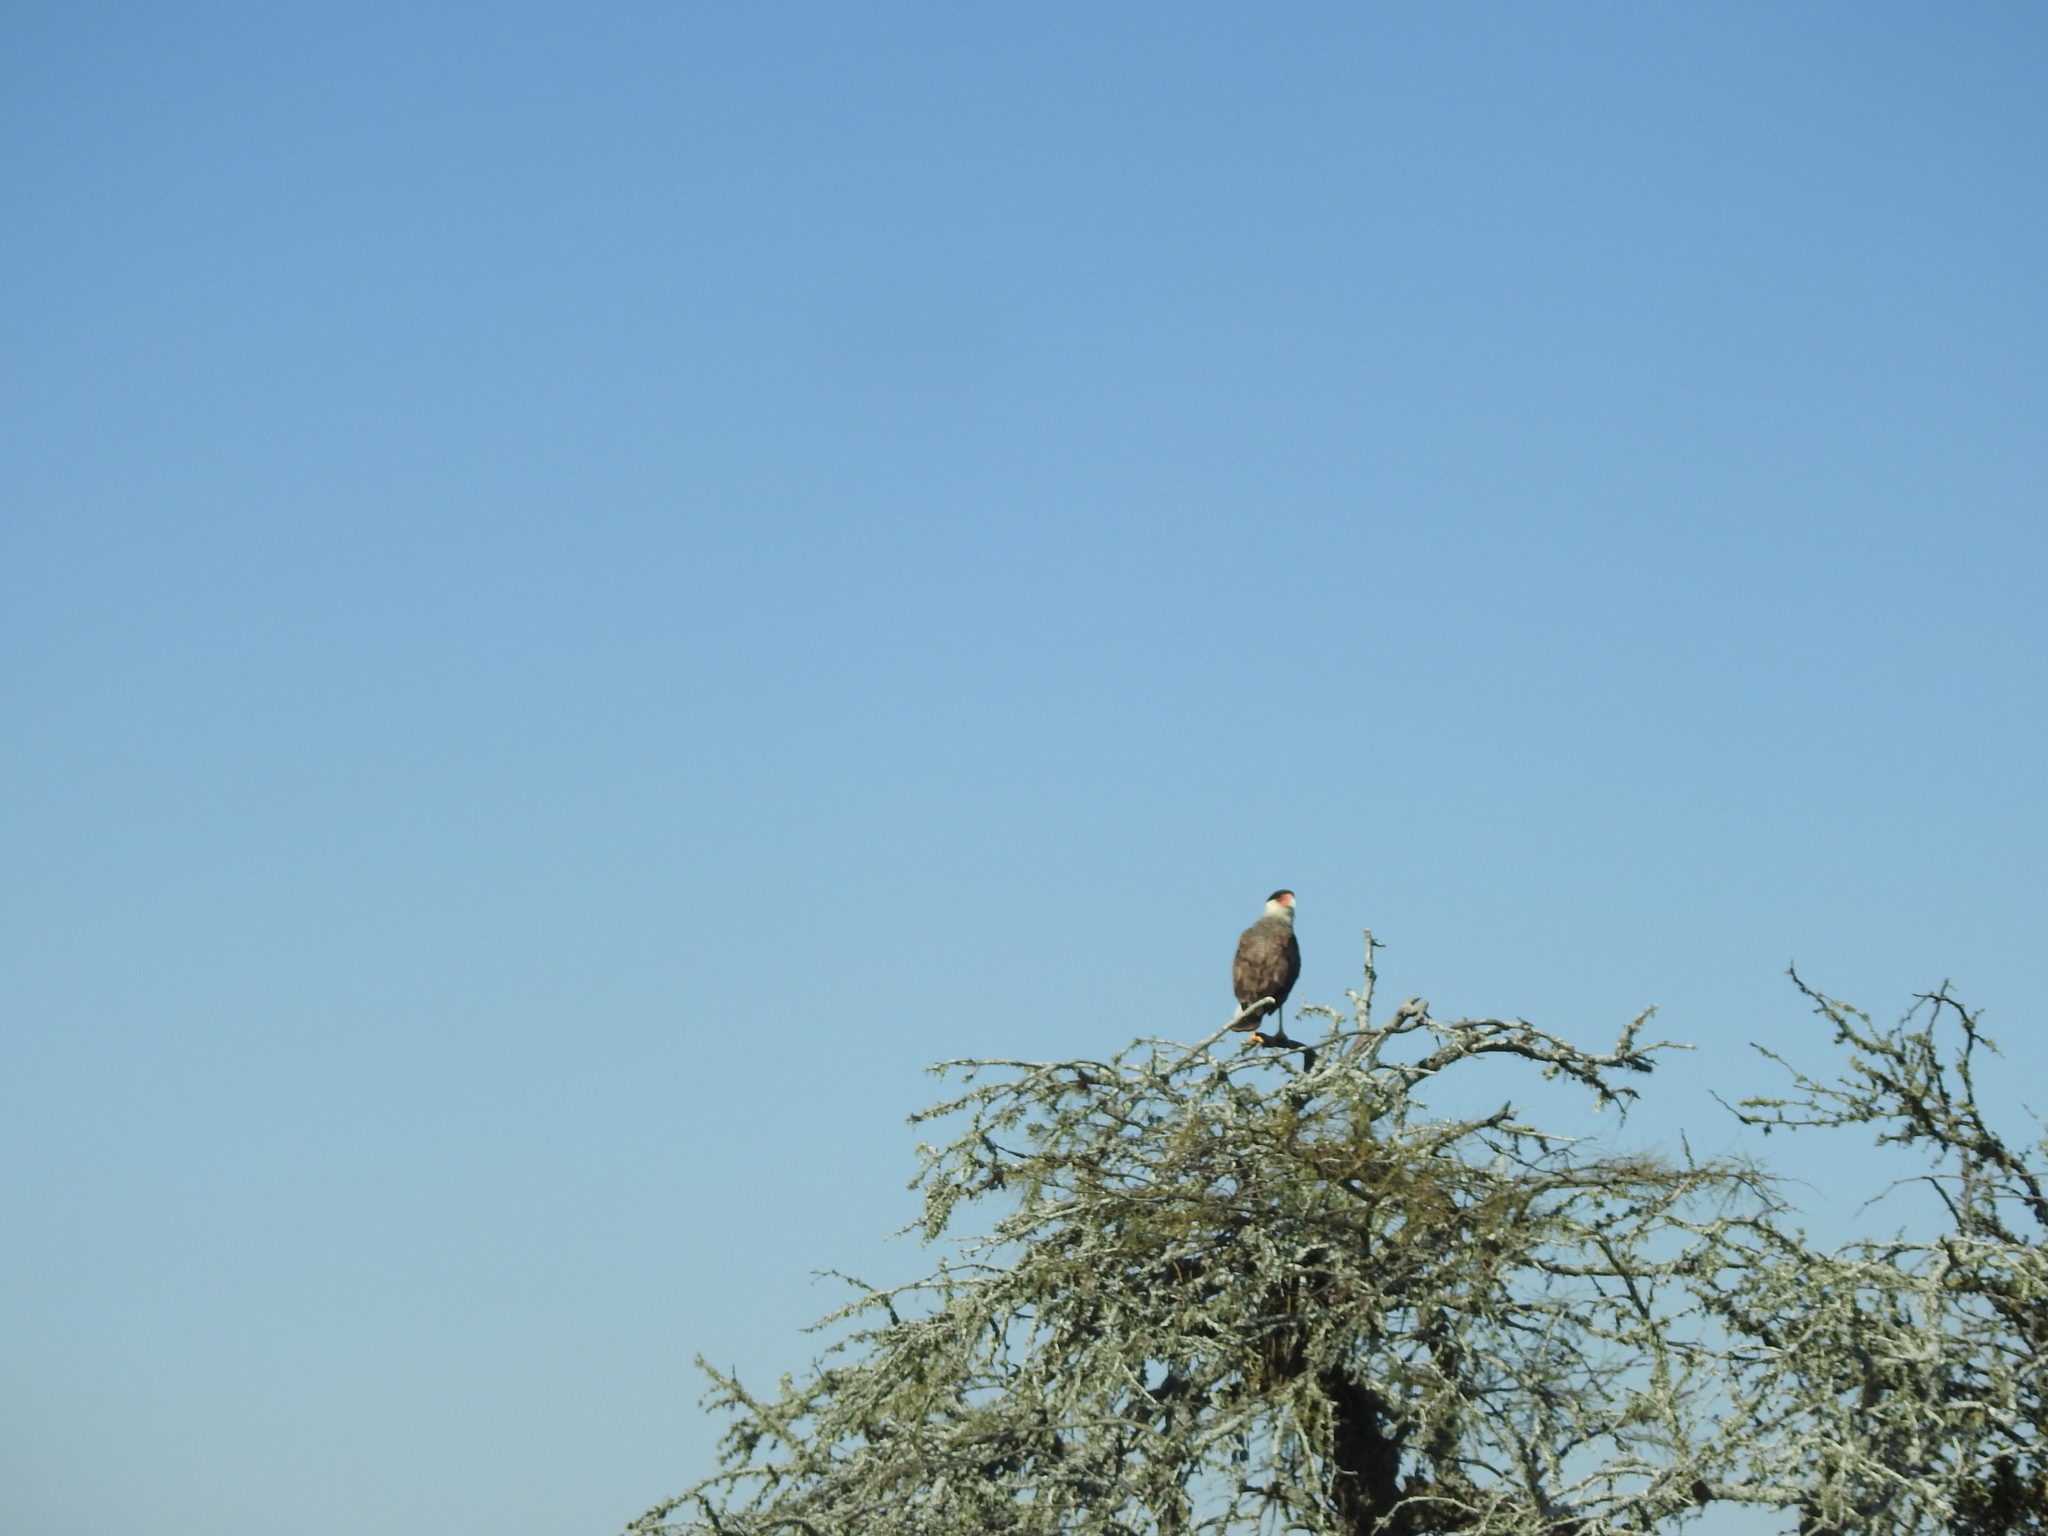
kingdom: Animalia
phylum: Chordata
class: Aves
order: Falconiformes
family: Falconidae
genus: Caracara
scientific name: Caracara plancus
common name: Southern caracara
